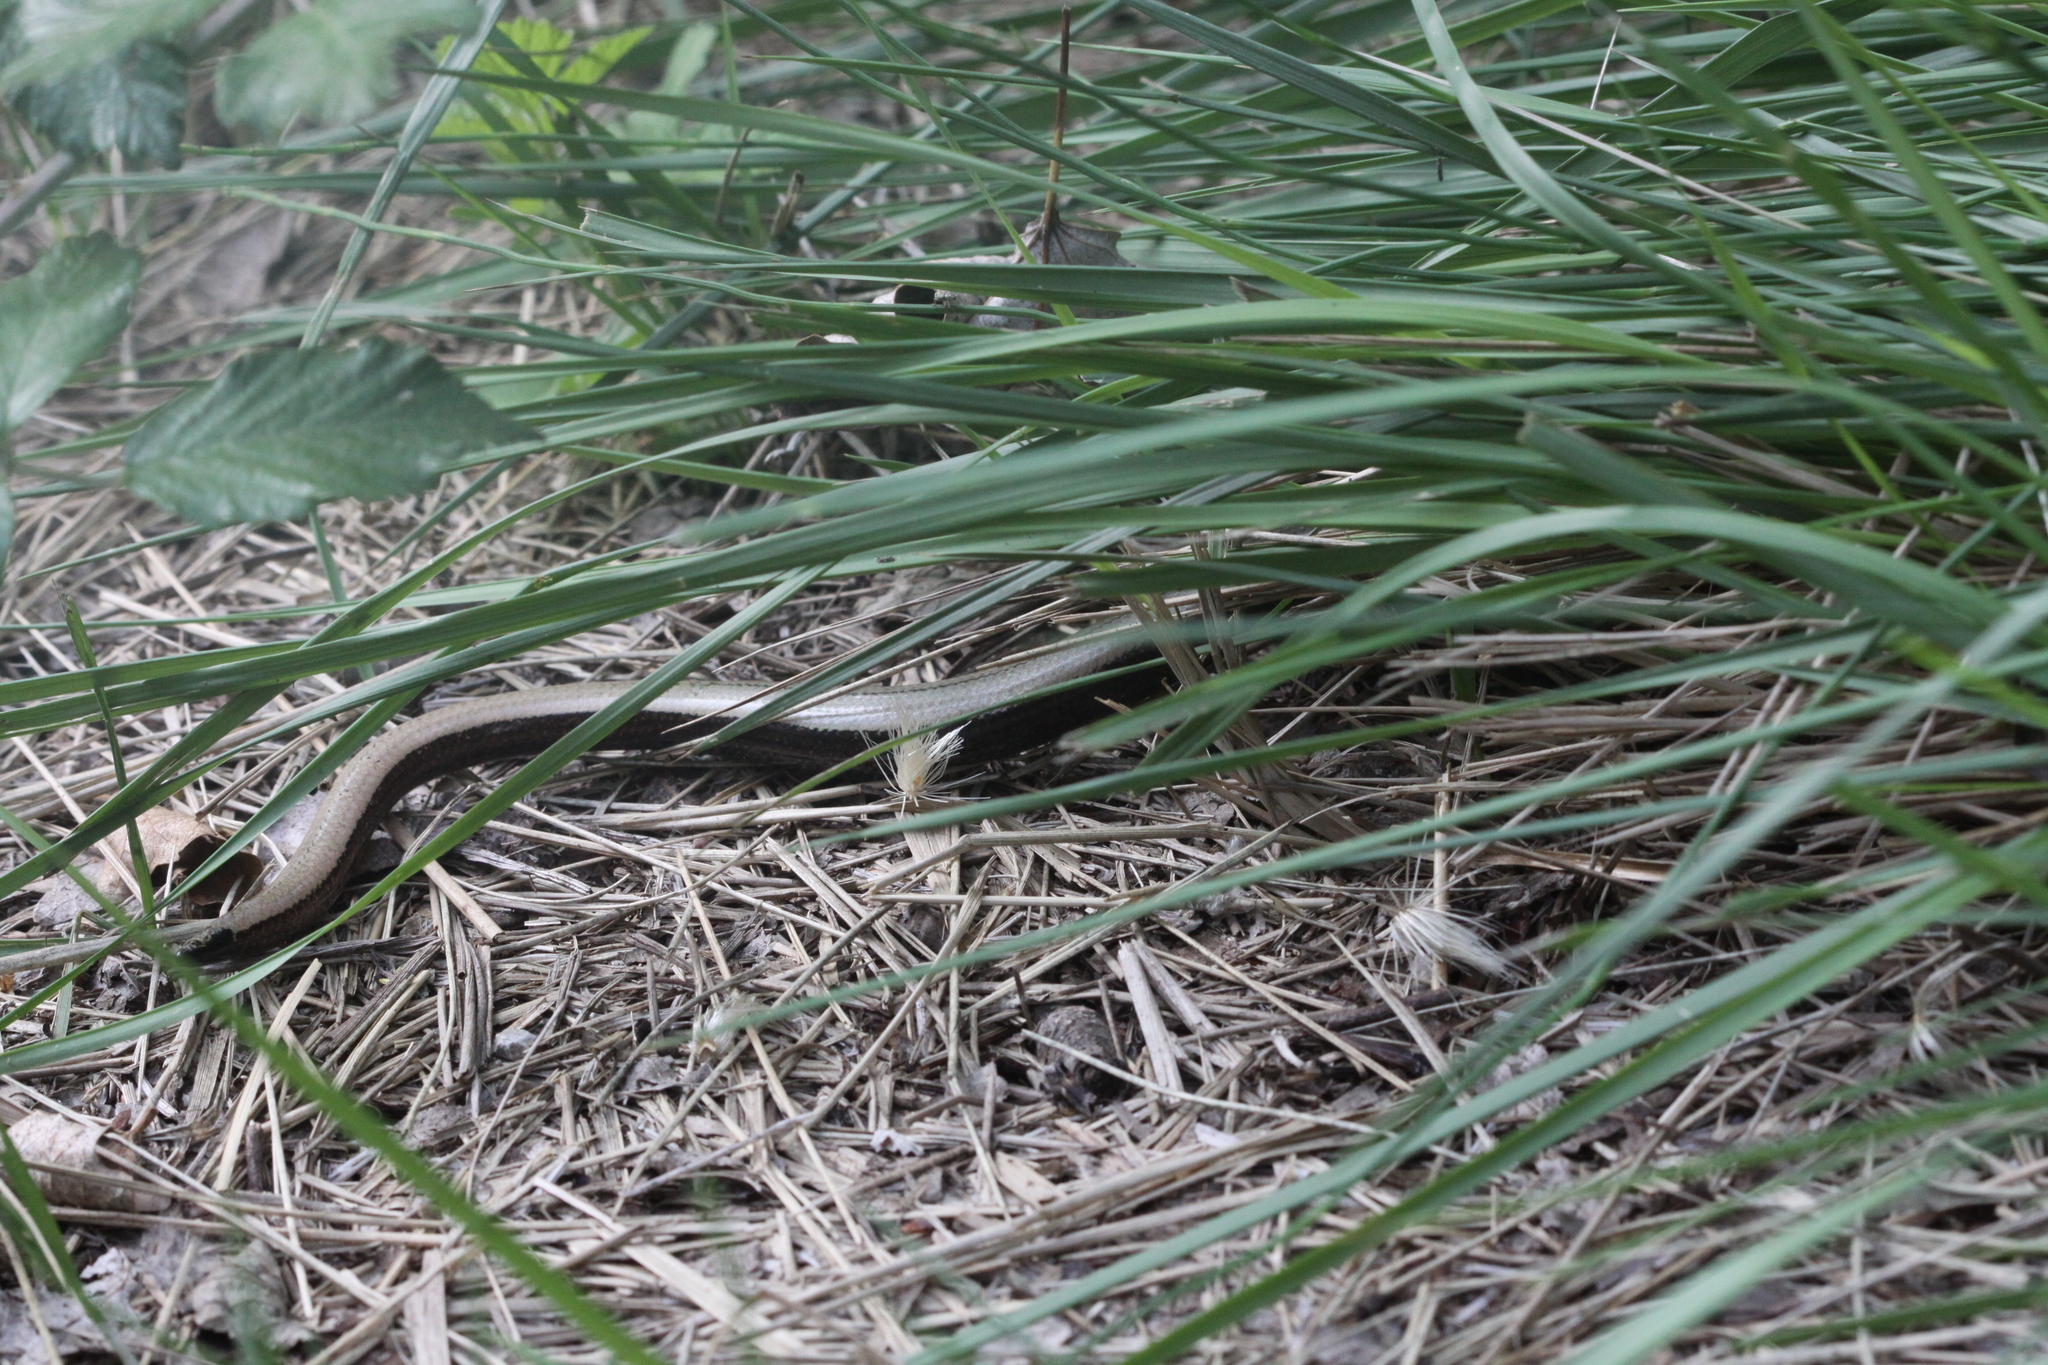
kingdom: Animalia
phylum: Chordata
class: Squamata
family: Anguidae
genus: Anguis
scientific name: Anguis fragilis
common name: Slow worm
